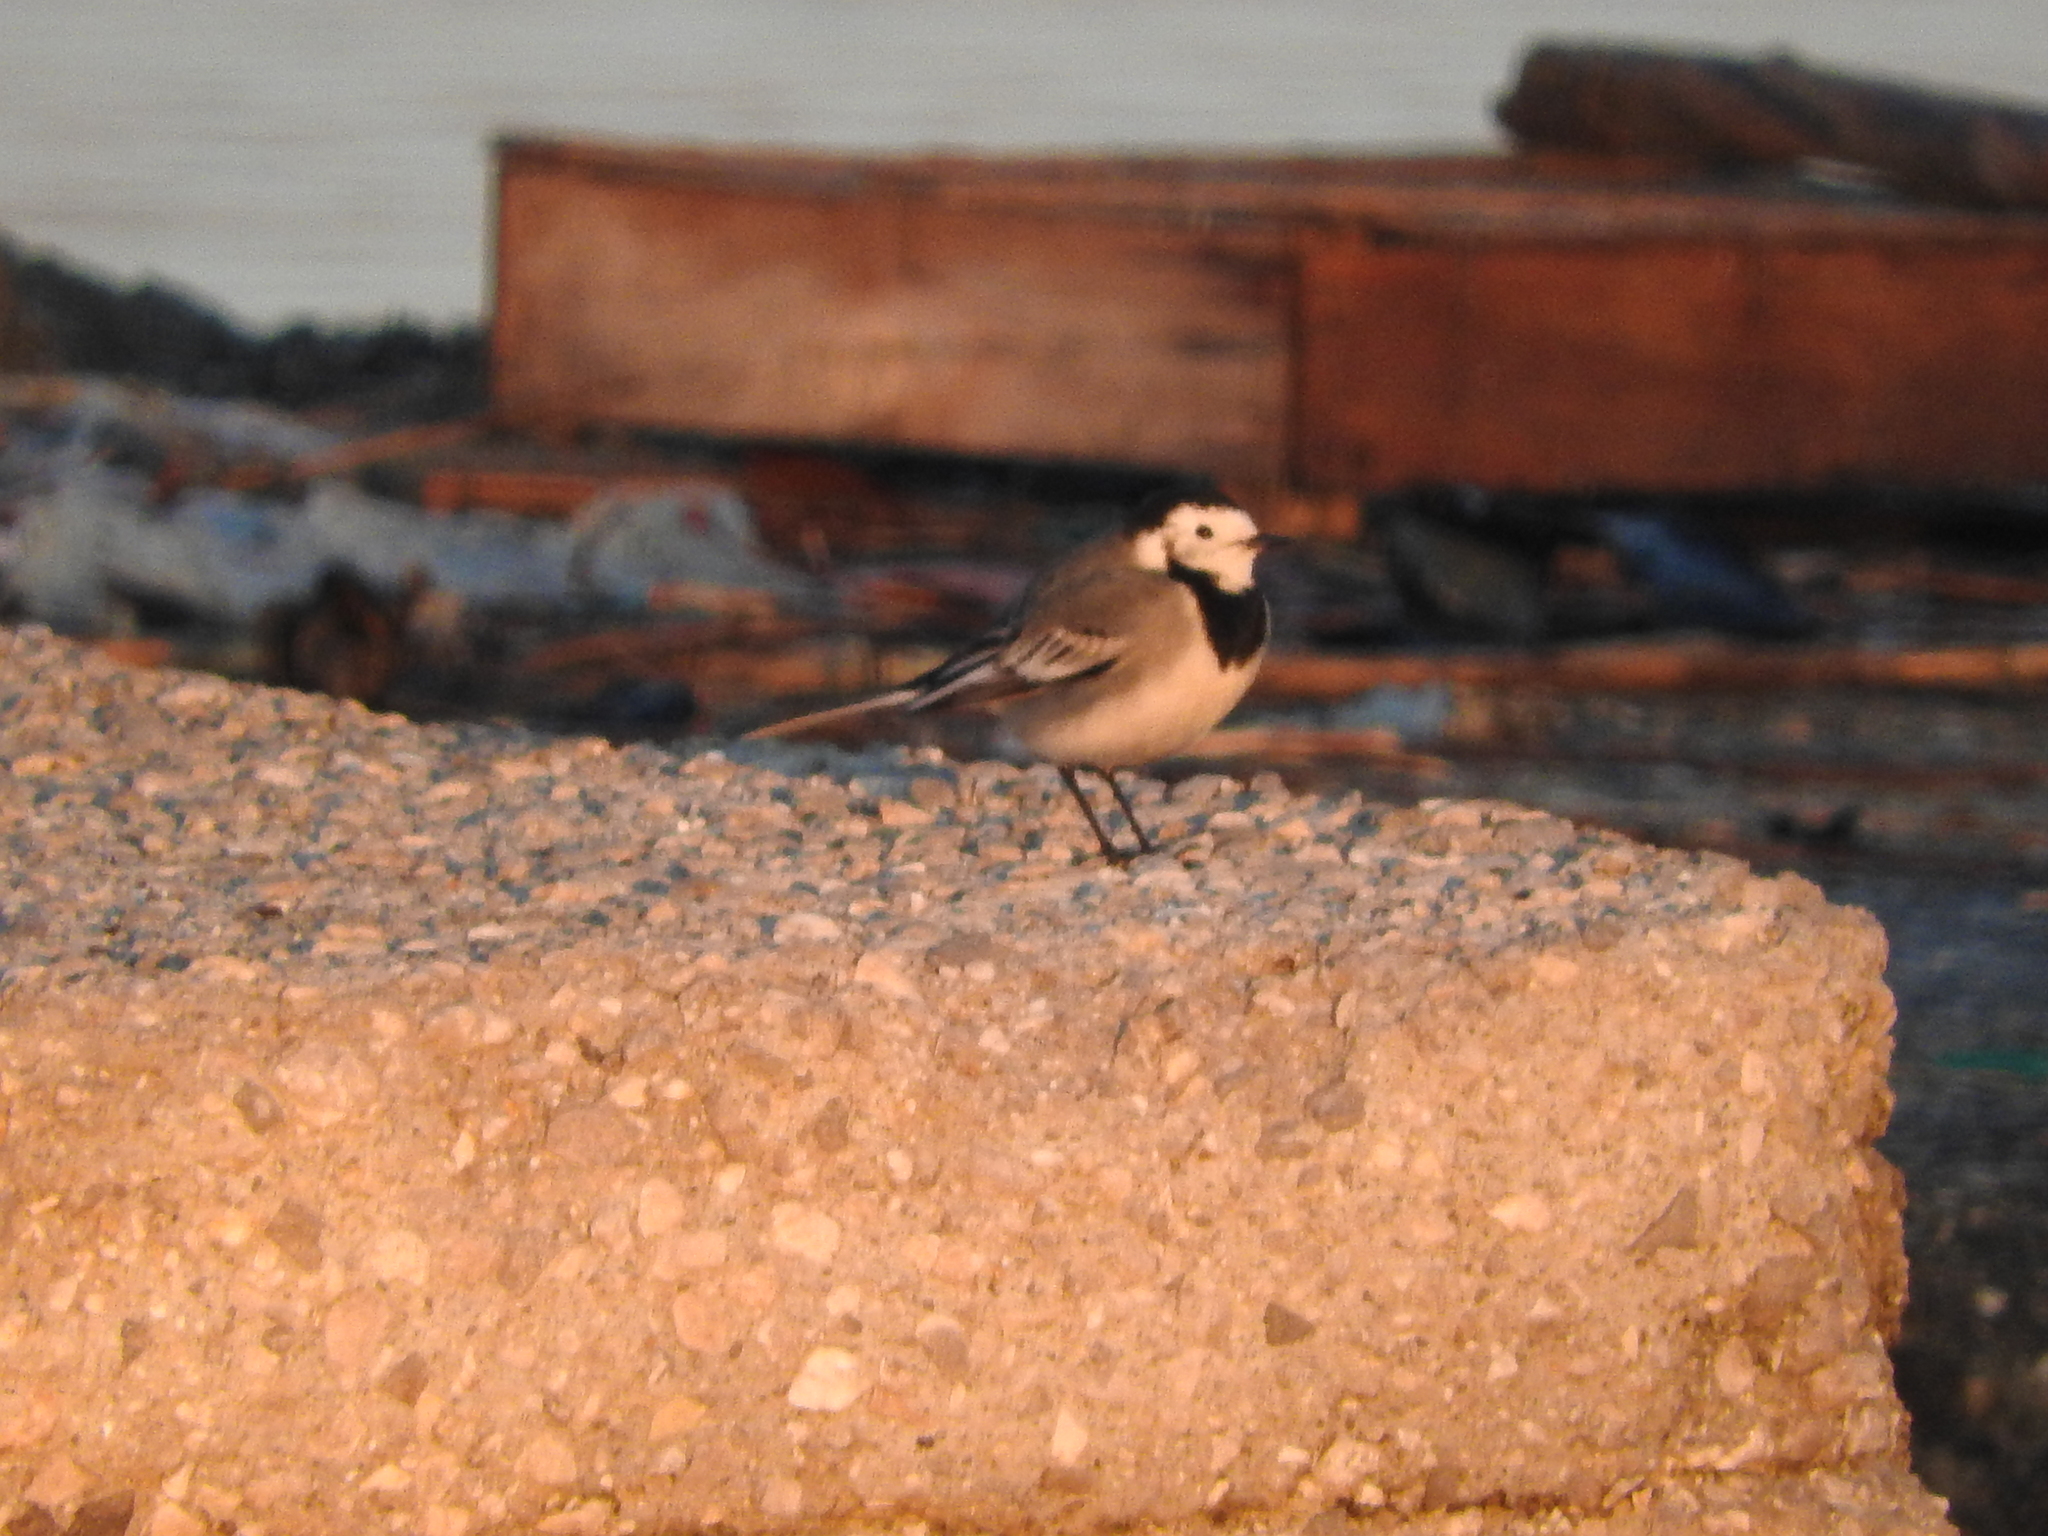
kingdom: Animalia
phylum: Chordata
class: Aves
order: Passeriformes
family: Motacillidae
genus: Motacilla
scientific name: Motacilla alba
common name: White wagtail
